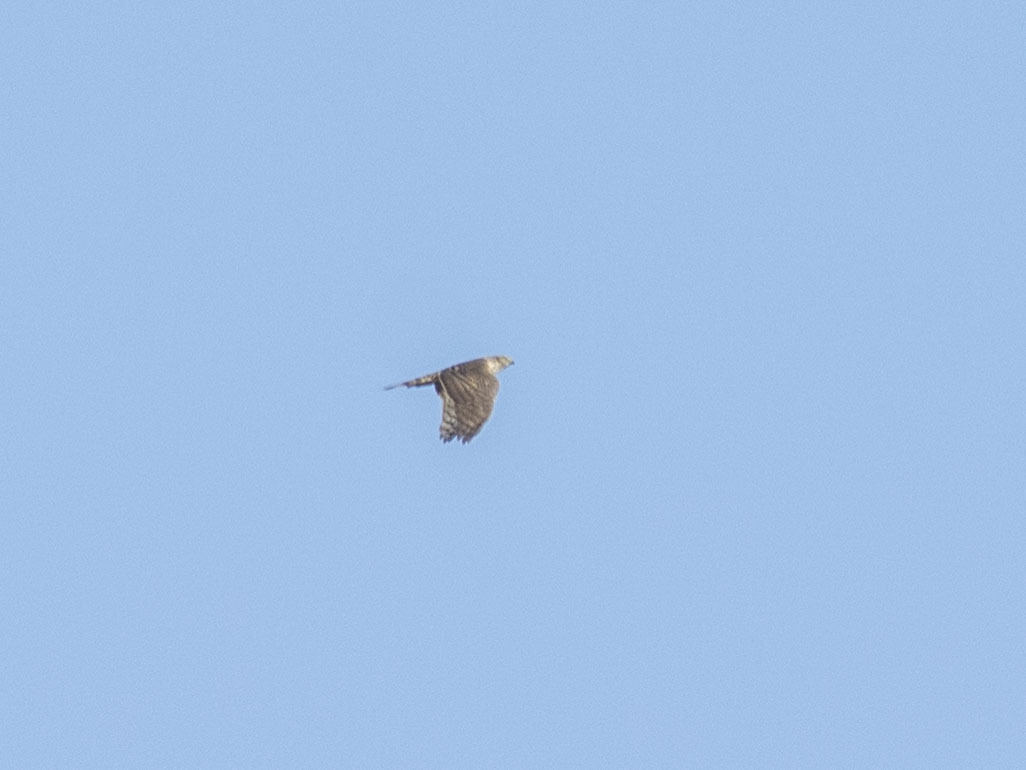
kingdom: Animalia
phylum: Chordata
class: Aves
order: Accipitriformes
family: Accipitridae
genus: Accipiter
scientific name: Accipiter gentilis
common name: Northern goshawk
